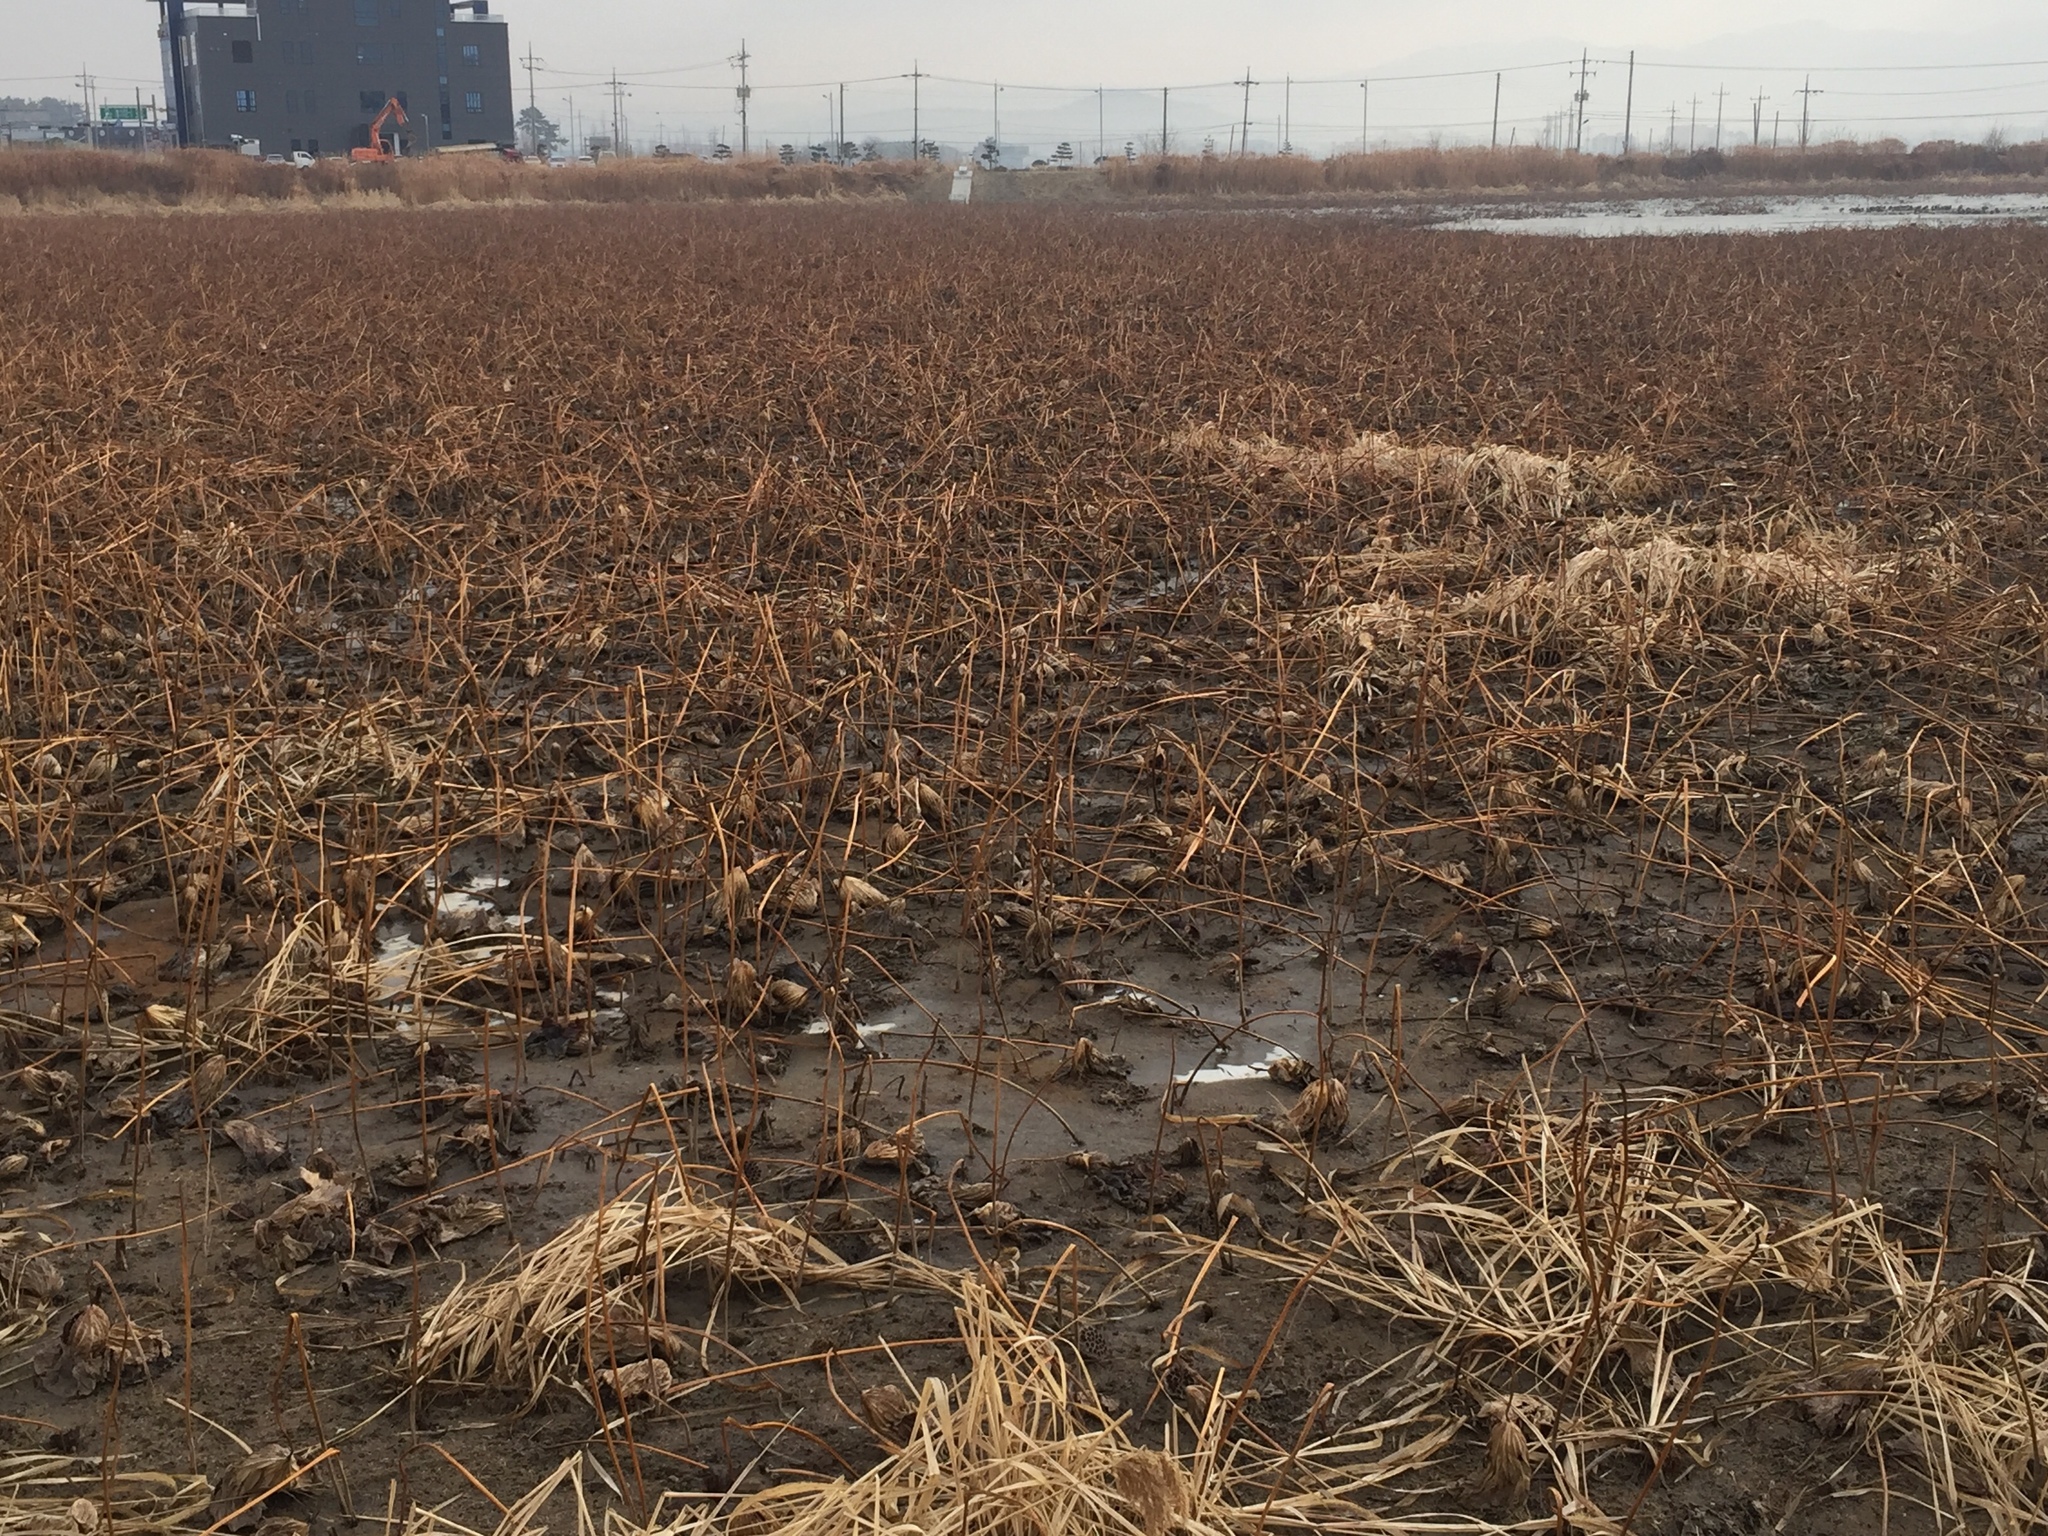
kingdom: Plantae
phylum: Tracheophyta
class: Magnoliopsida
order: Proteales
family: Nelumbonaceae
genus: Nelumbo
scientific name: Nelumbo nucifera
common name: Sacred lotus
